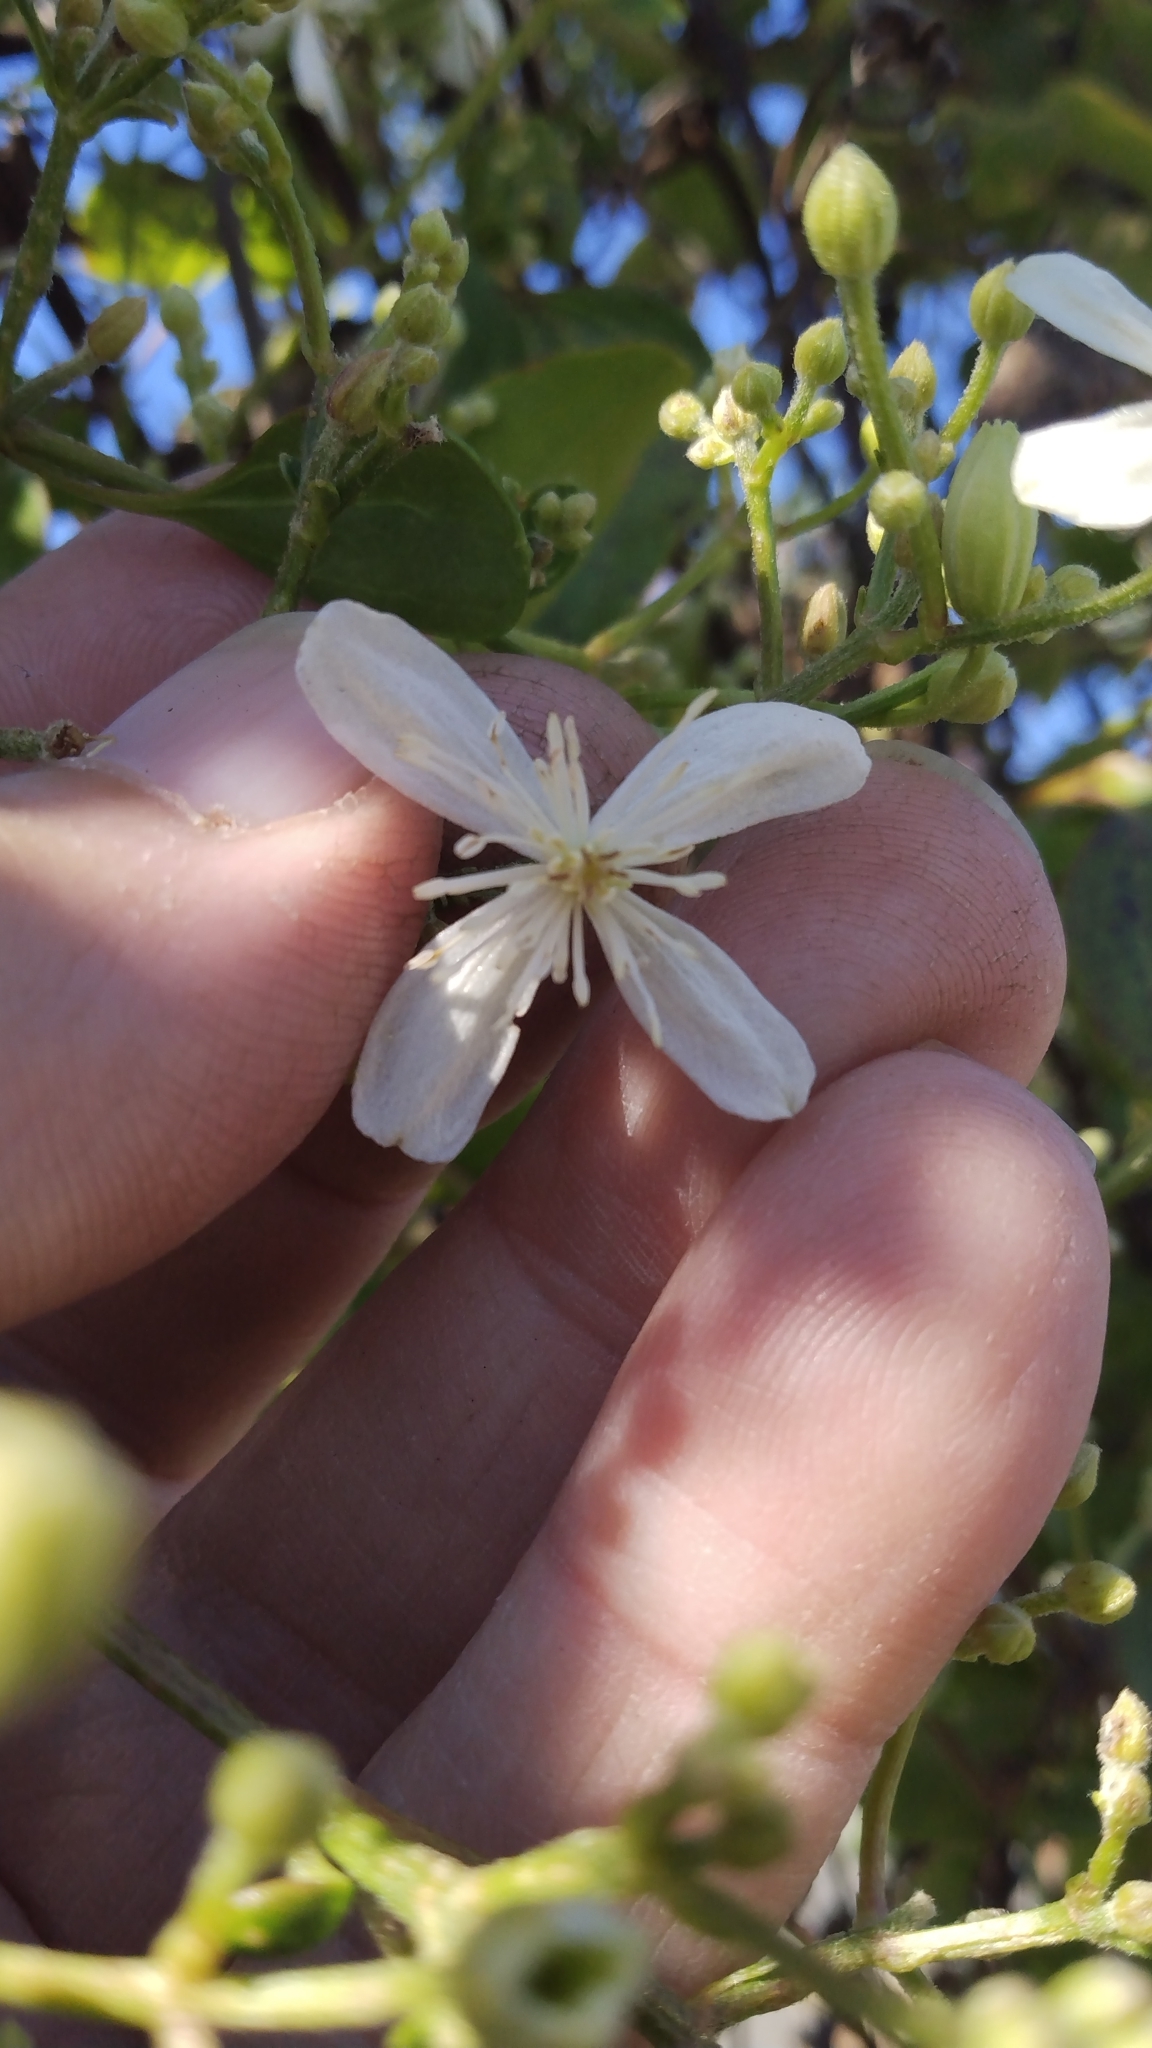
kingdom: Plantae
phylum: Tracheophyta
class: Magnoliopsida
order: Ranunculales
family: Ranunculaceae
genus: Clematis
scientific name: Clematis terniflora
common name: Sweet autumn clematis
